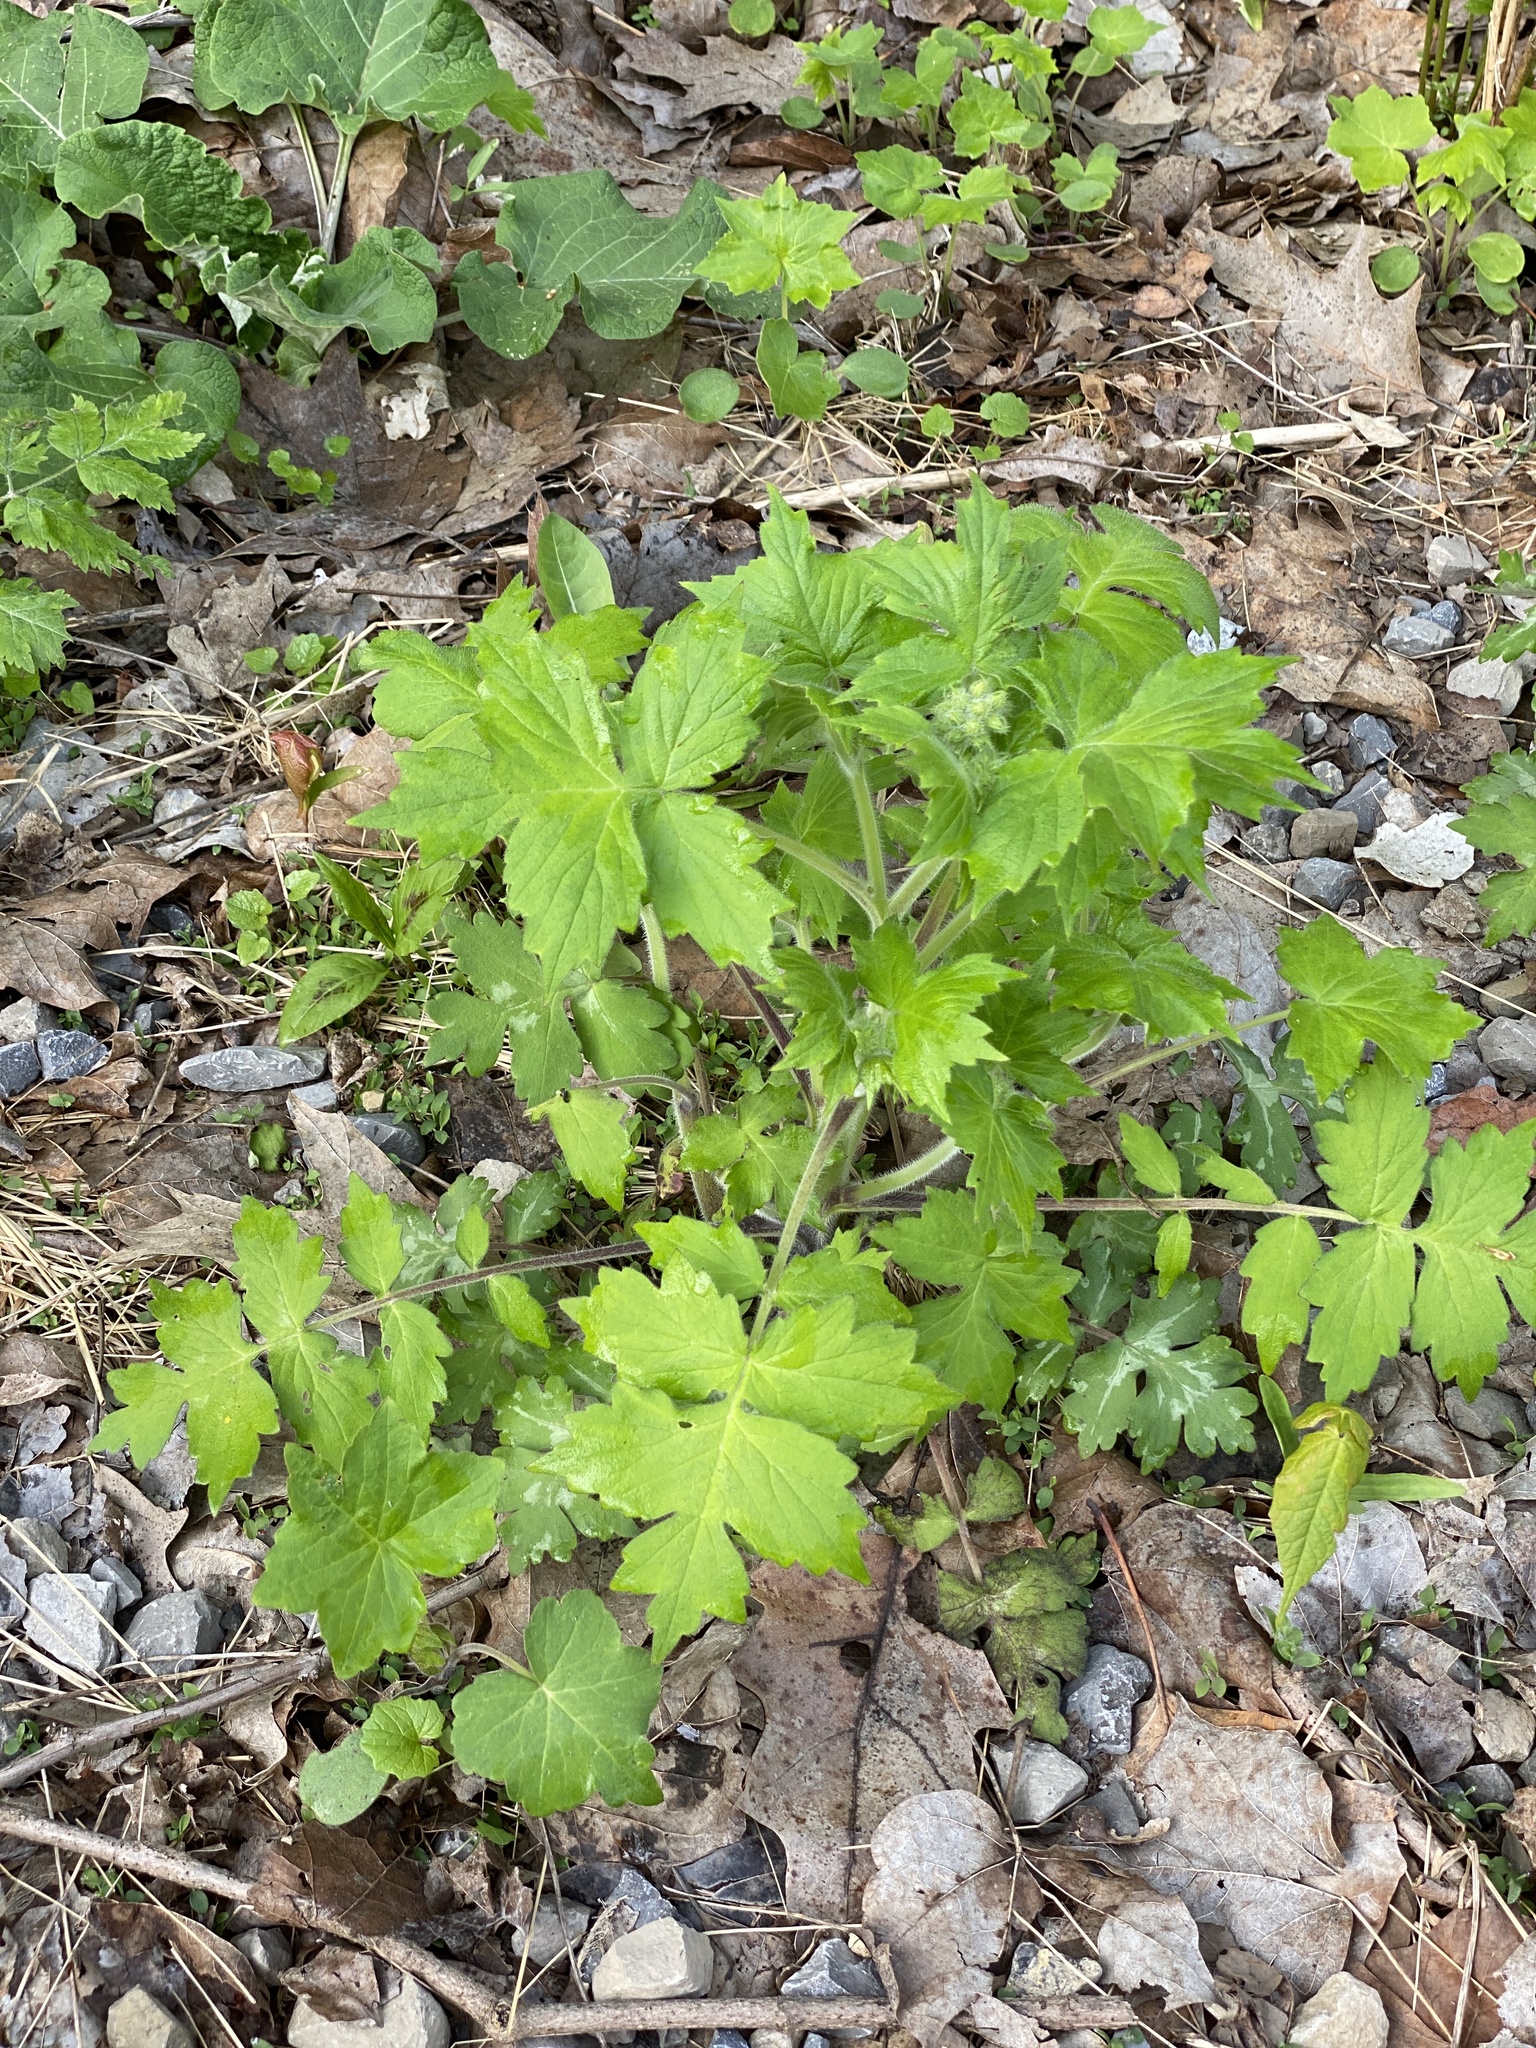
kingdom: Plantae
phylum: Tracheophyta
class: Magnoliopsida
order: Boraginales
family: Hydrophyllaceae
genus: Hydrophyllum
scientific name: Hydrophyllum appendiculatum
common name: Appendaged waterleaf
